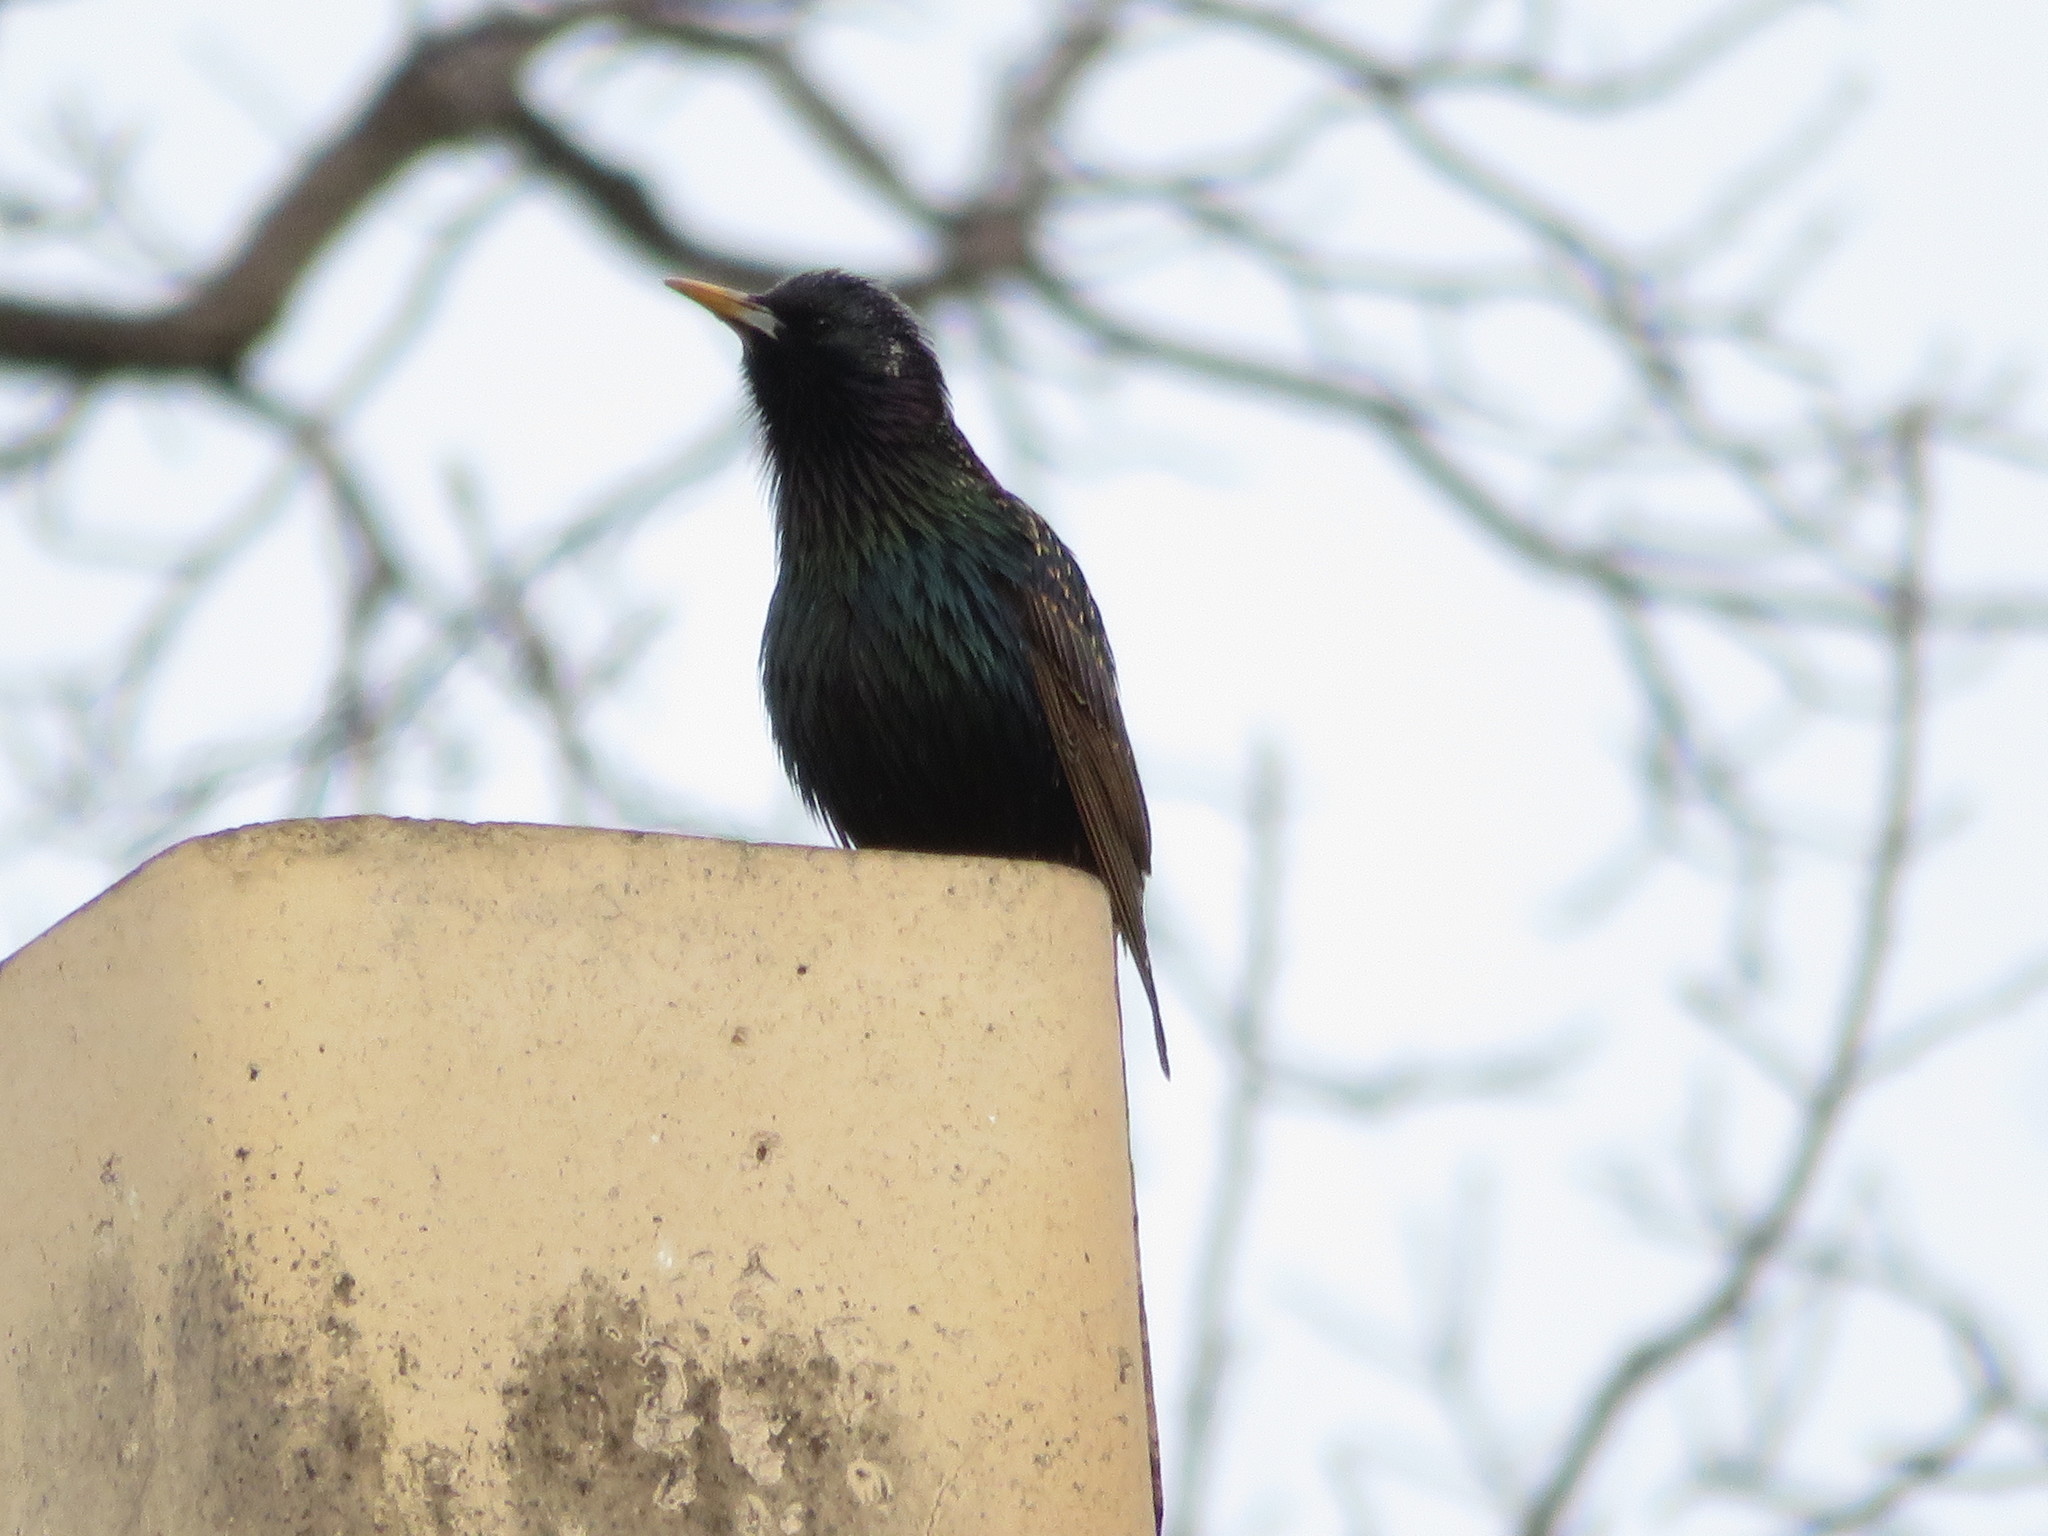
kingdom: Animalia
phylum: Chordata
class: Aves
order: Passeriformes
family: Sturnidae
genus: Sturnus
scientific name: Sturnus vulgaris
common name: Common starling
